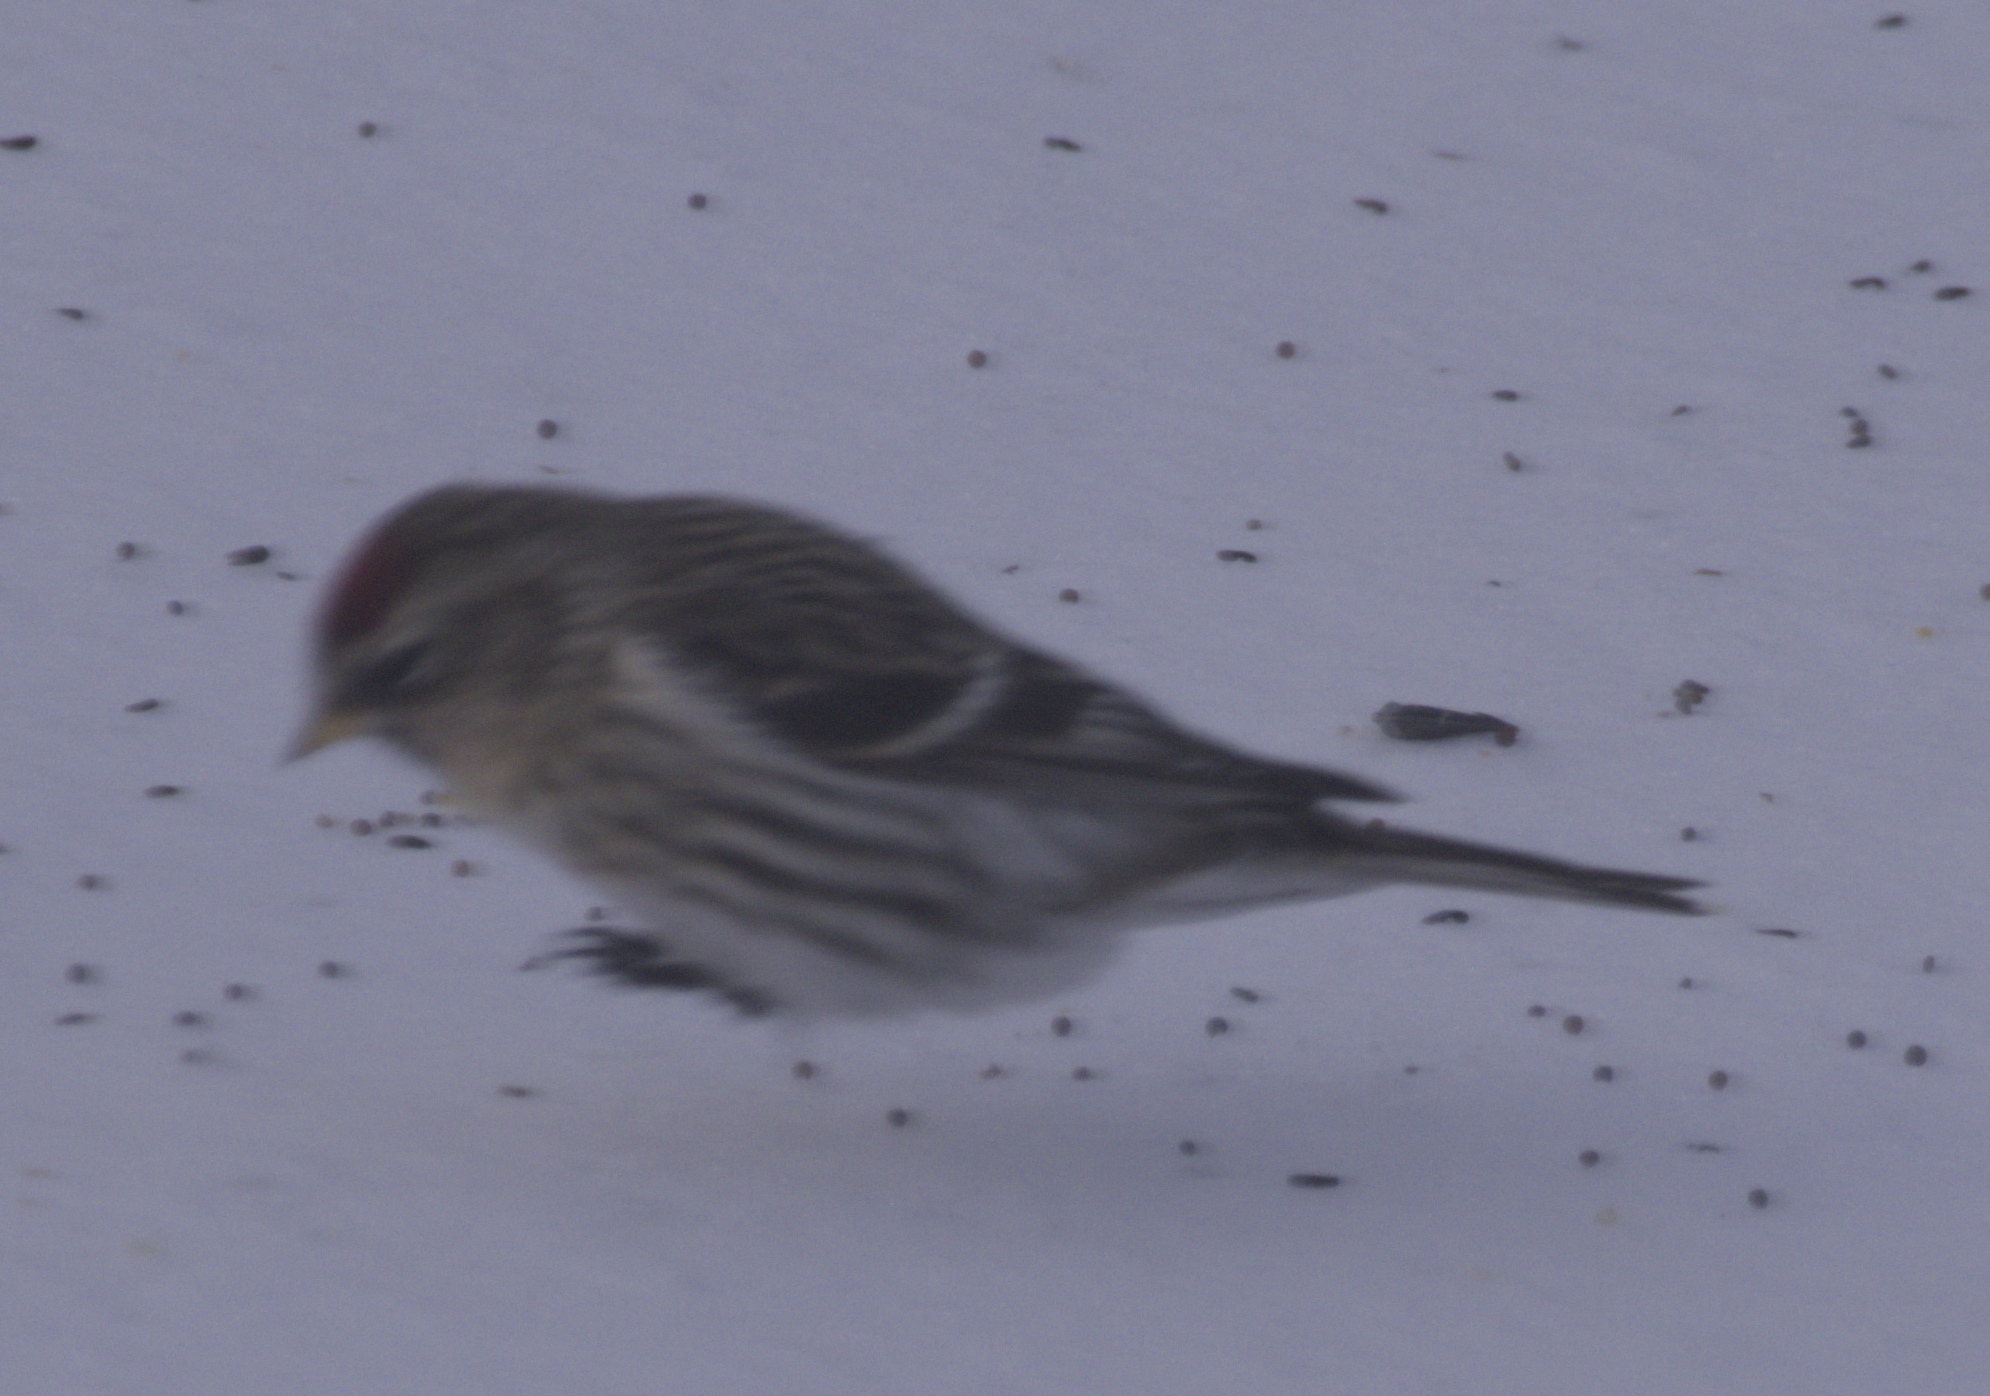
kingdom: Animalia
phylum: Chordata
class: Aves
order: Passeriformes
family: Fringillidae
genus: Acanthis
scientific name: Acanthis flammea
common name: Common redpoll
